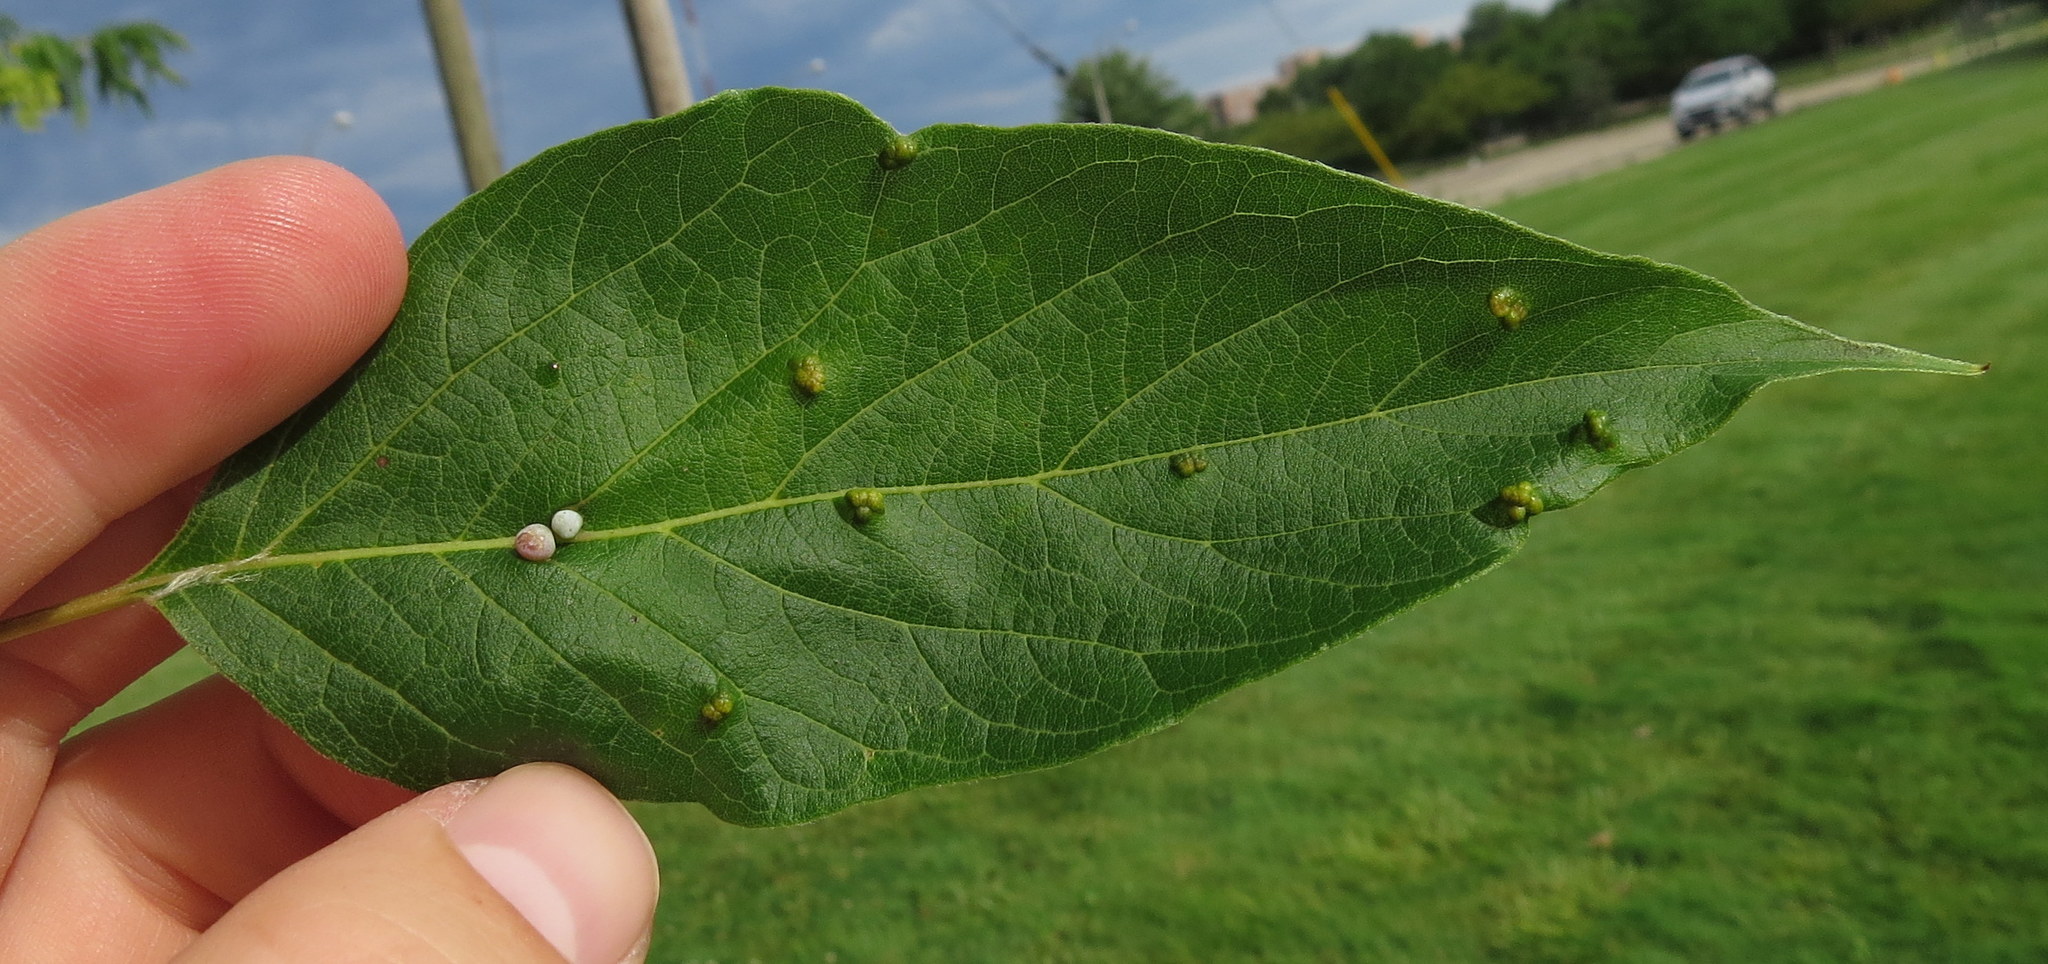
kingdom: Animalia
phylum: Arthropoda
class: Arachnida
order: Trombidiformes
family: Eriophyidae
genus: Aceria
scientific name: Aceria
